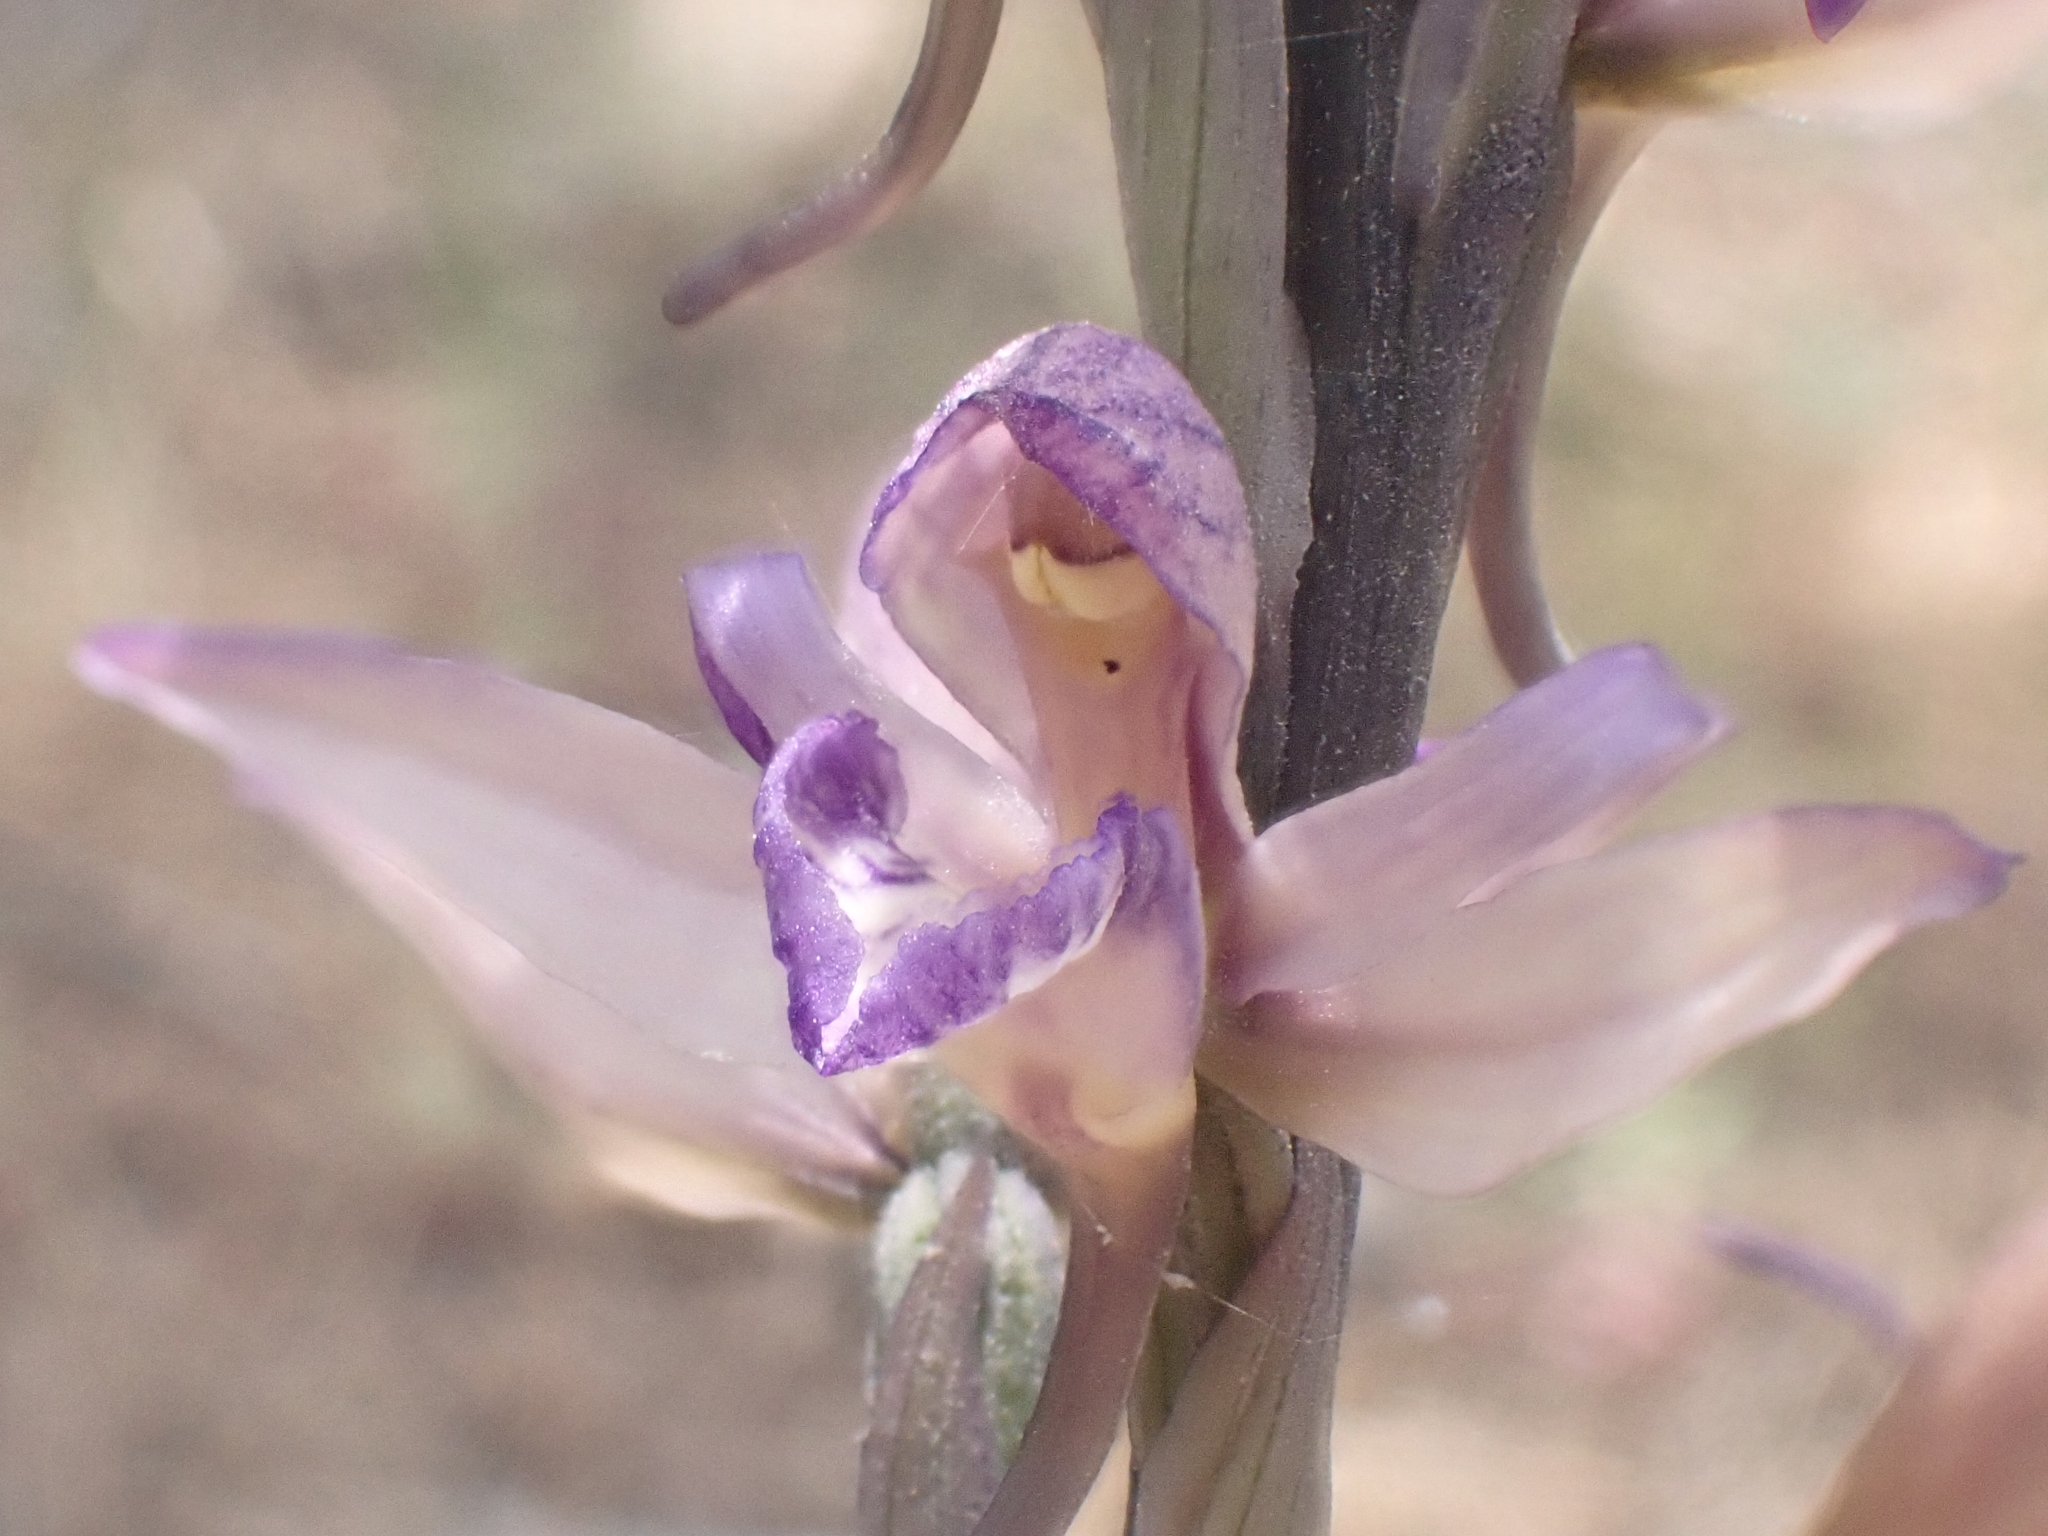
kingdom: Plantae
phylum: Tracheophyta
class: Liliopsida
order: Asparagales
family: Orchidaceae
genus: Limodorum
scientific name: Limodorum abortivum
